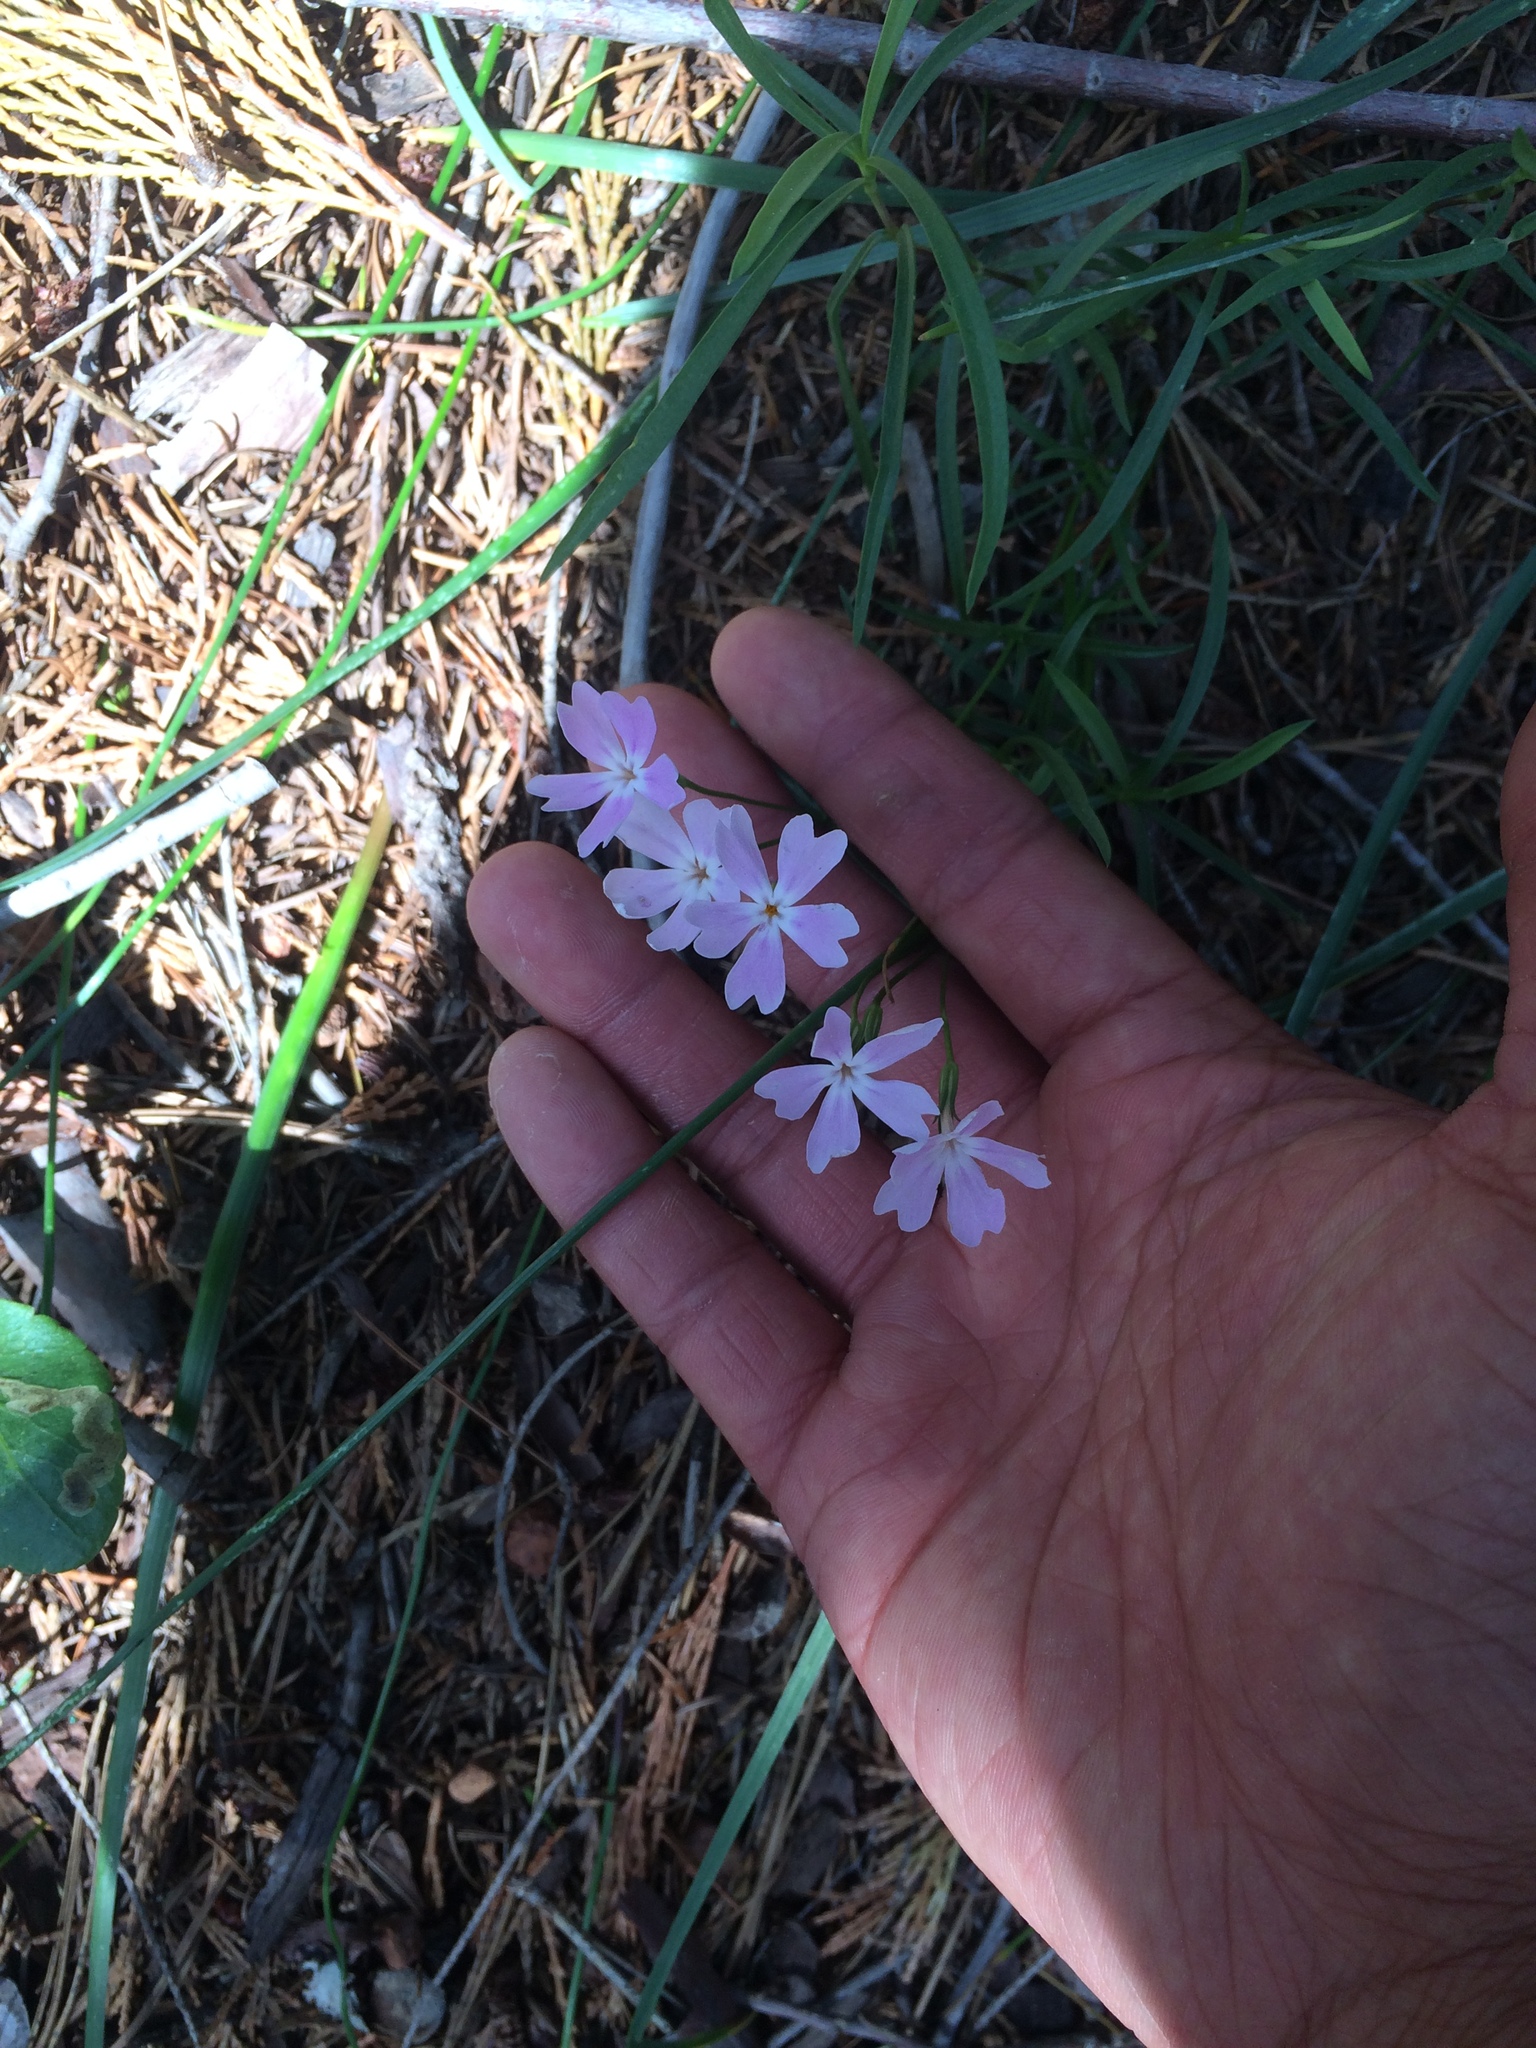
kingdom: Plantae
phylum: Tracheophyta
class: Magnoliopsida
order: Ericales
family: Polemoniaceae
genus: Phlox
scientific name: Phlox speciosa
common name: Bush phlox
